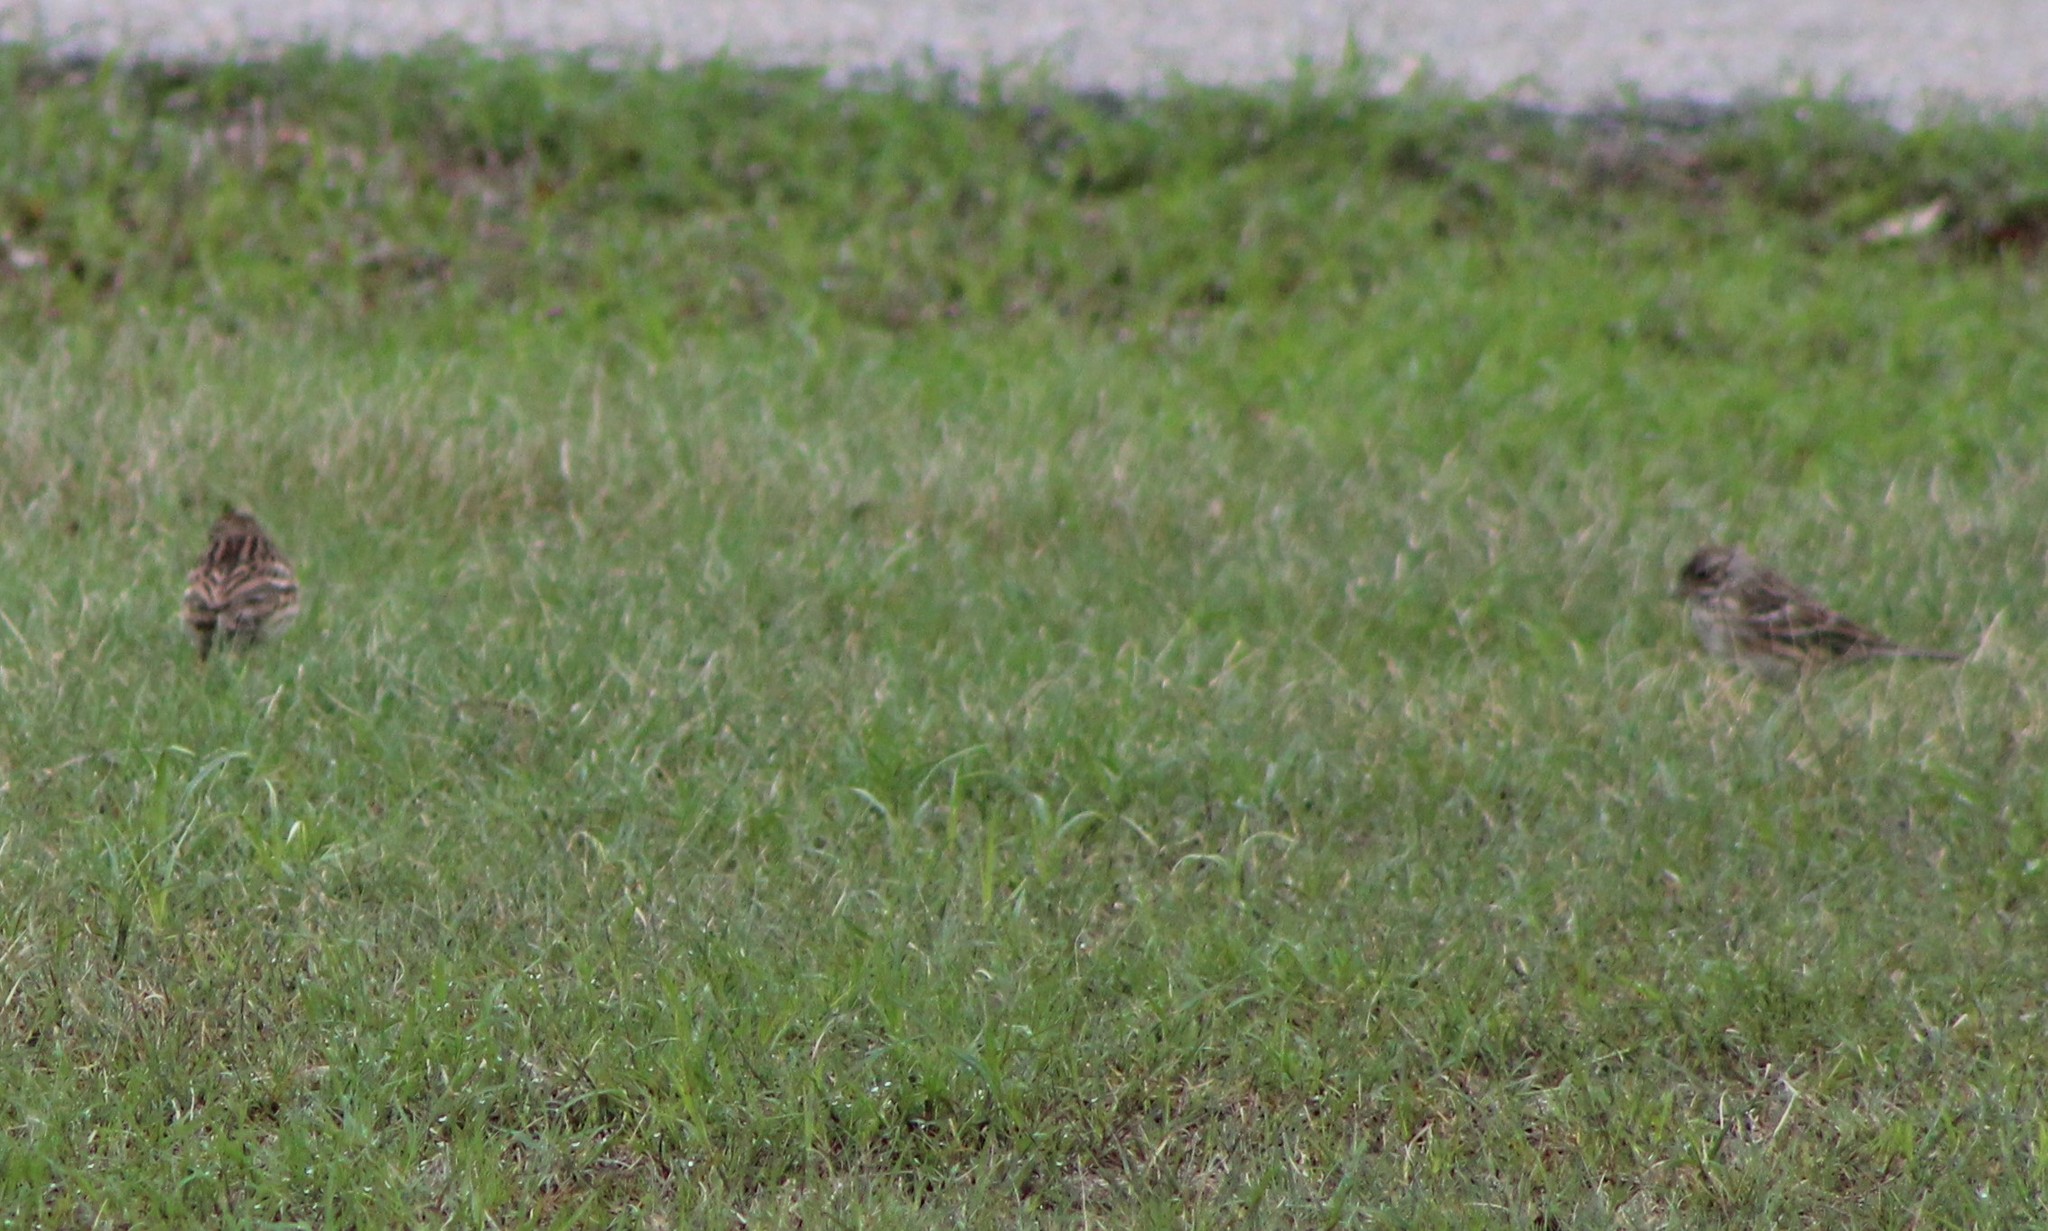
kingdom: Animalia
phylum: Chordata
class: Aves
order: Passeriformes
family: Passerellidae
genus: Pooecetes
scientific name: Pooecetes gramineus
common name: Vesper sparrow
